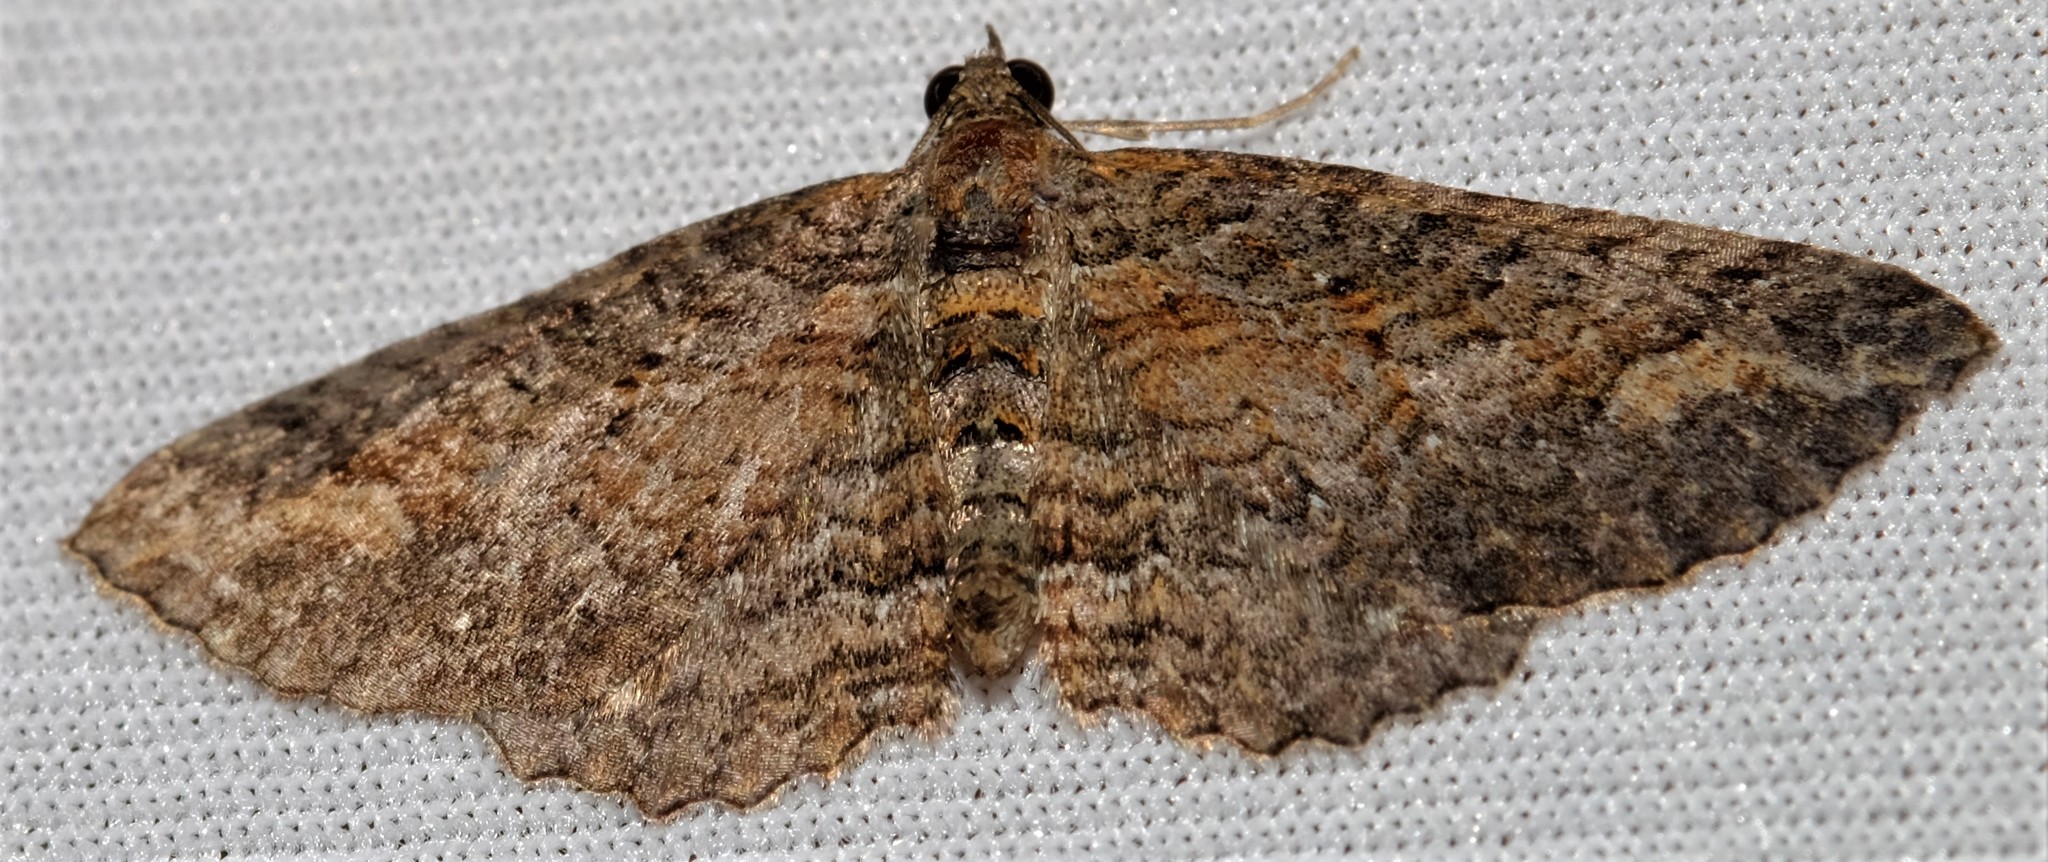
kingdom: Animalia
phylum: Arthropoda
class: Insecta
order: Lepidoptera
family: Geometridae
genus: Eupithecia
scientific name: Eupithecia Eucymatoge scotodes
